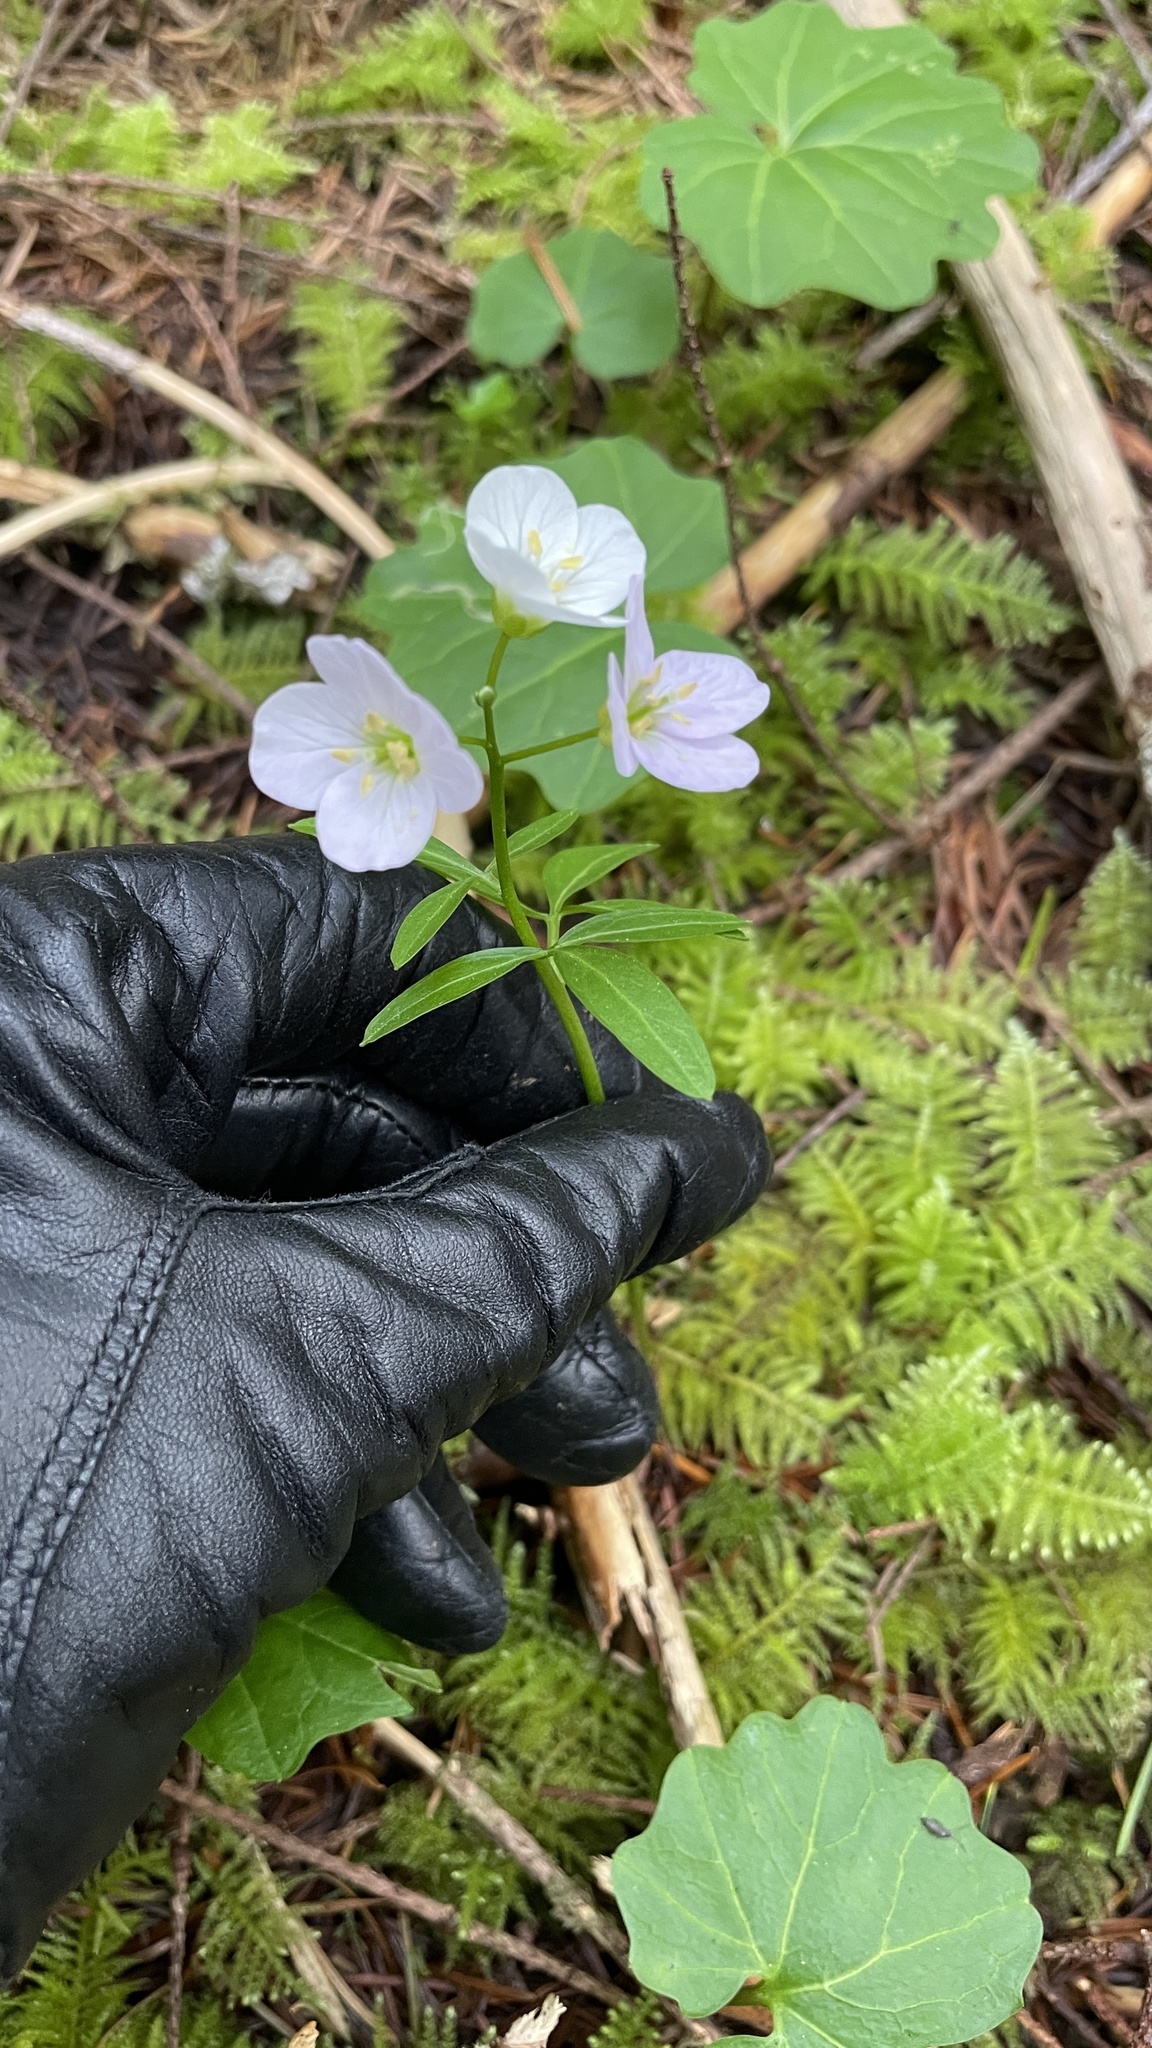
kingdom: Plantae
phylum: Tracheophyta
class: Magnoliopsida
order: Brassicales
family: Brassicaceae
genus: Cardamine
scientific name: Cardamine nuttallii
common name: Nuttall's toothwort
